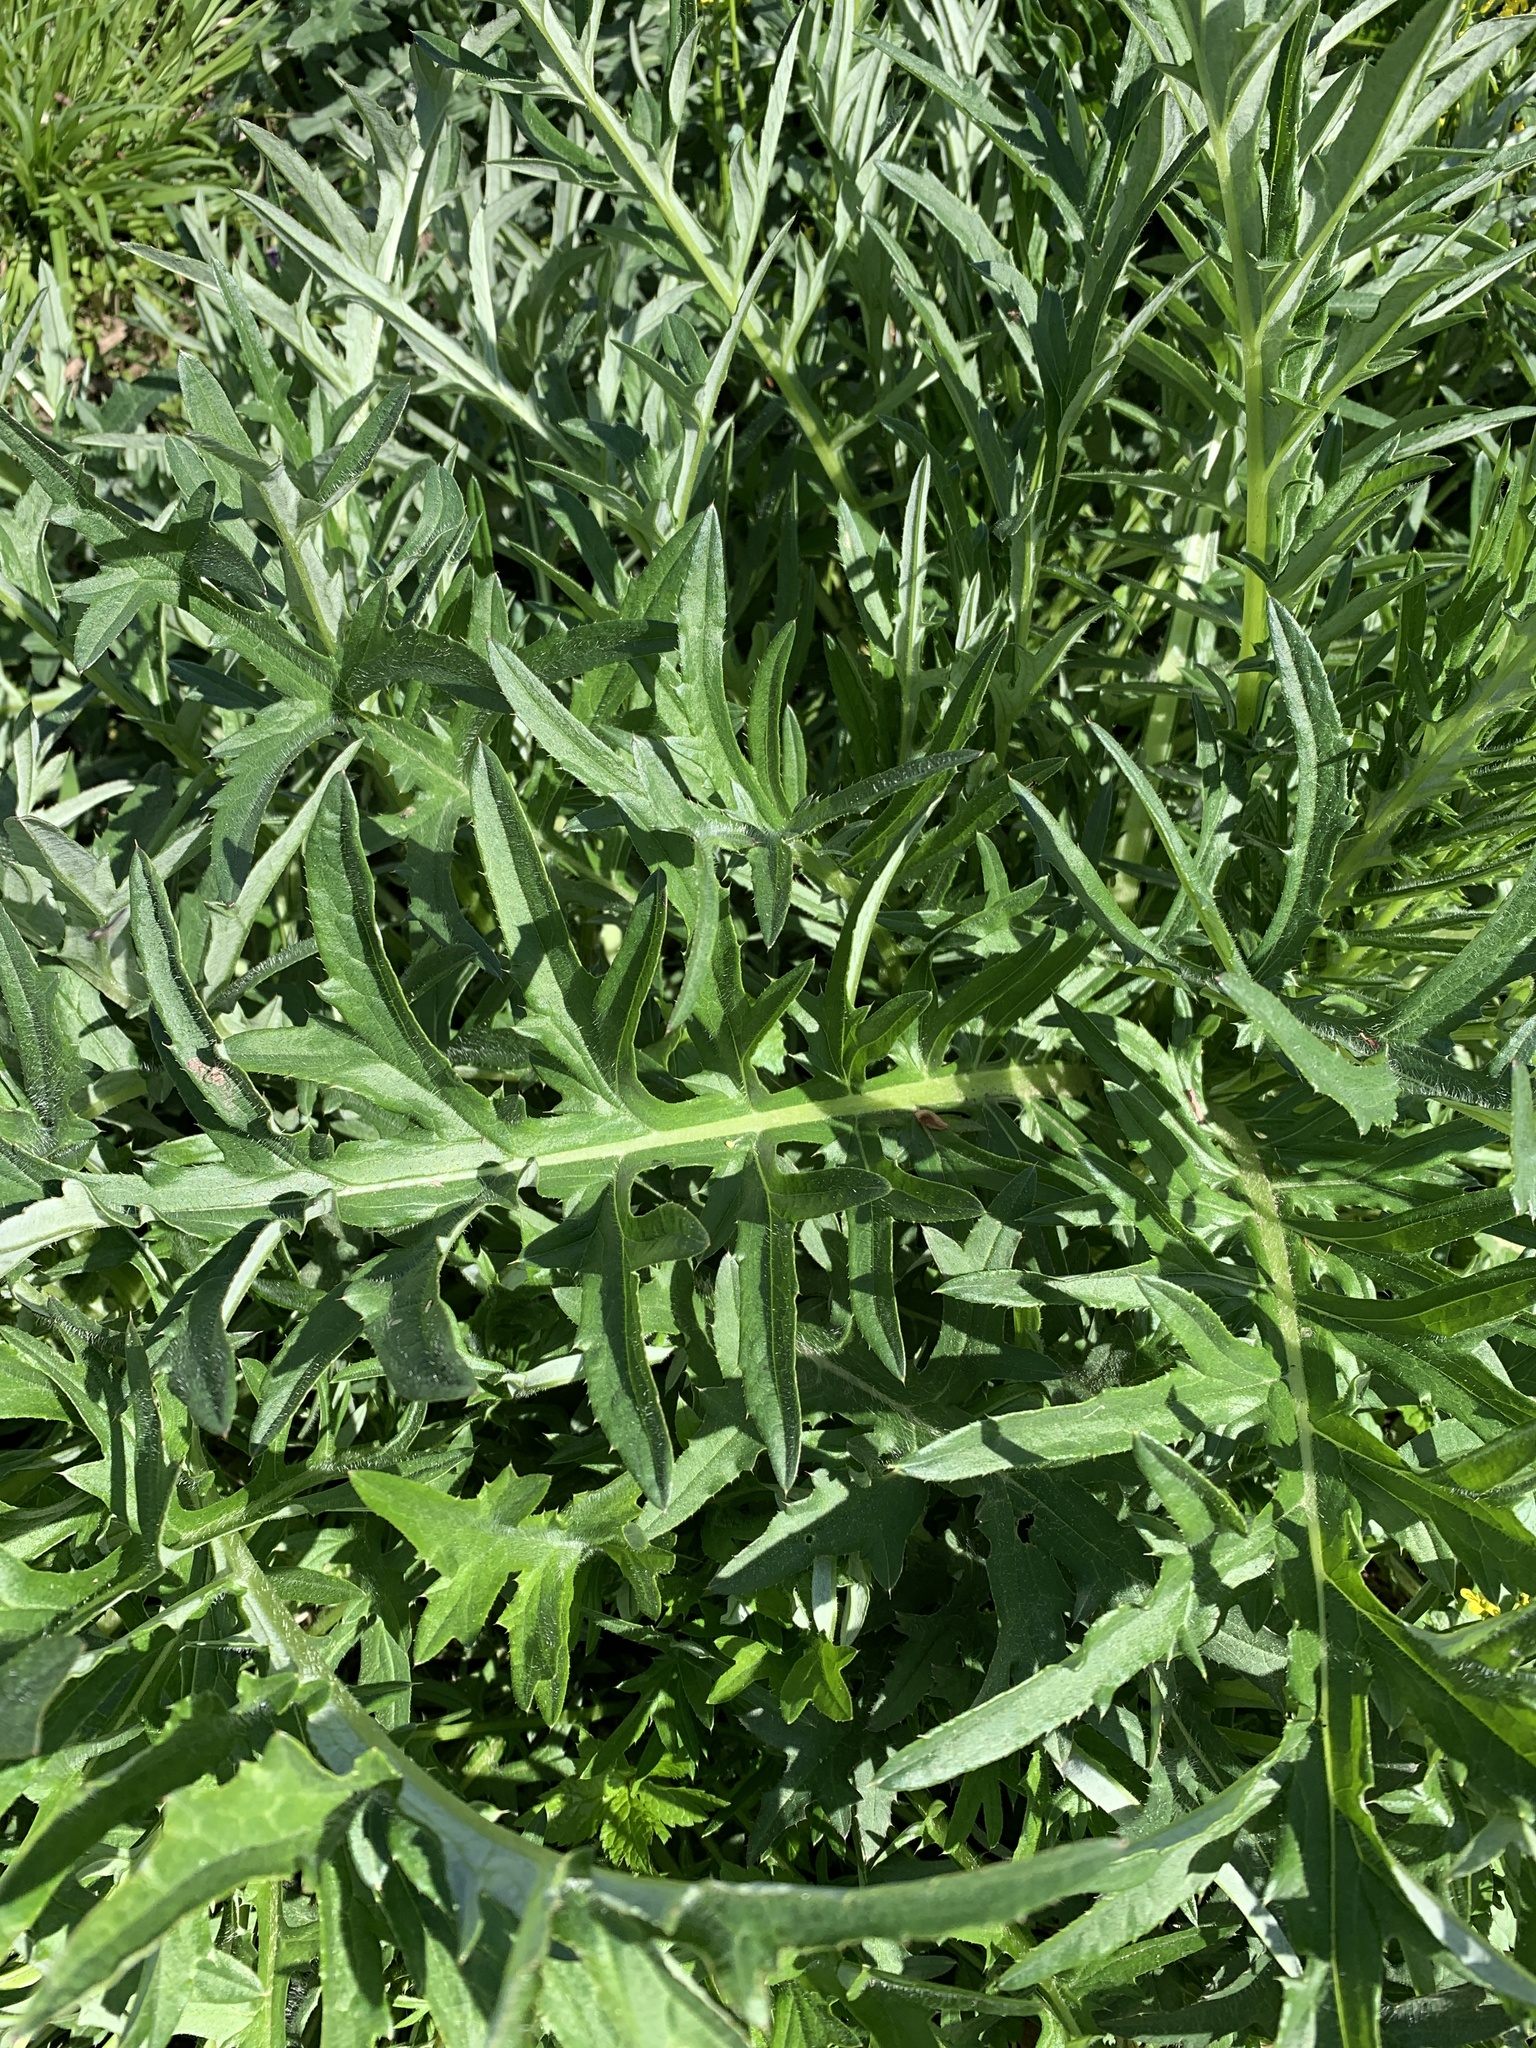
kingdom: Plantae
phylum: Tracheophyta
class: Magnoliopsida
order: Asterales
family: Asteraceae
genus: Cirsium
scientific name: Cirsium discolor
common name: Field thistle
